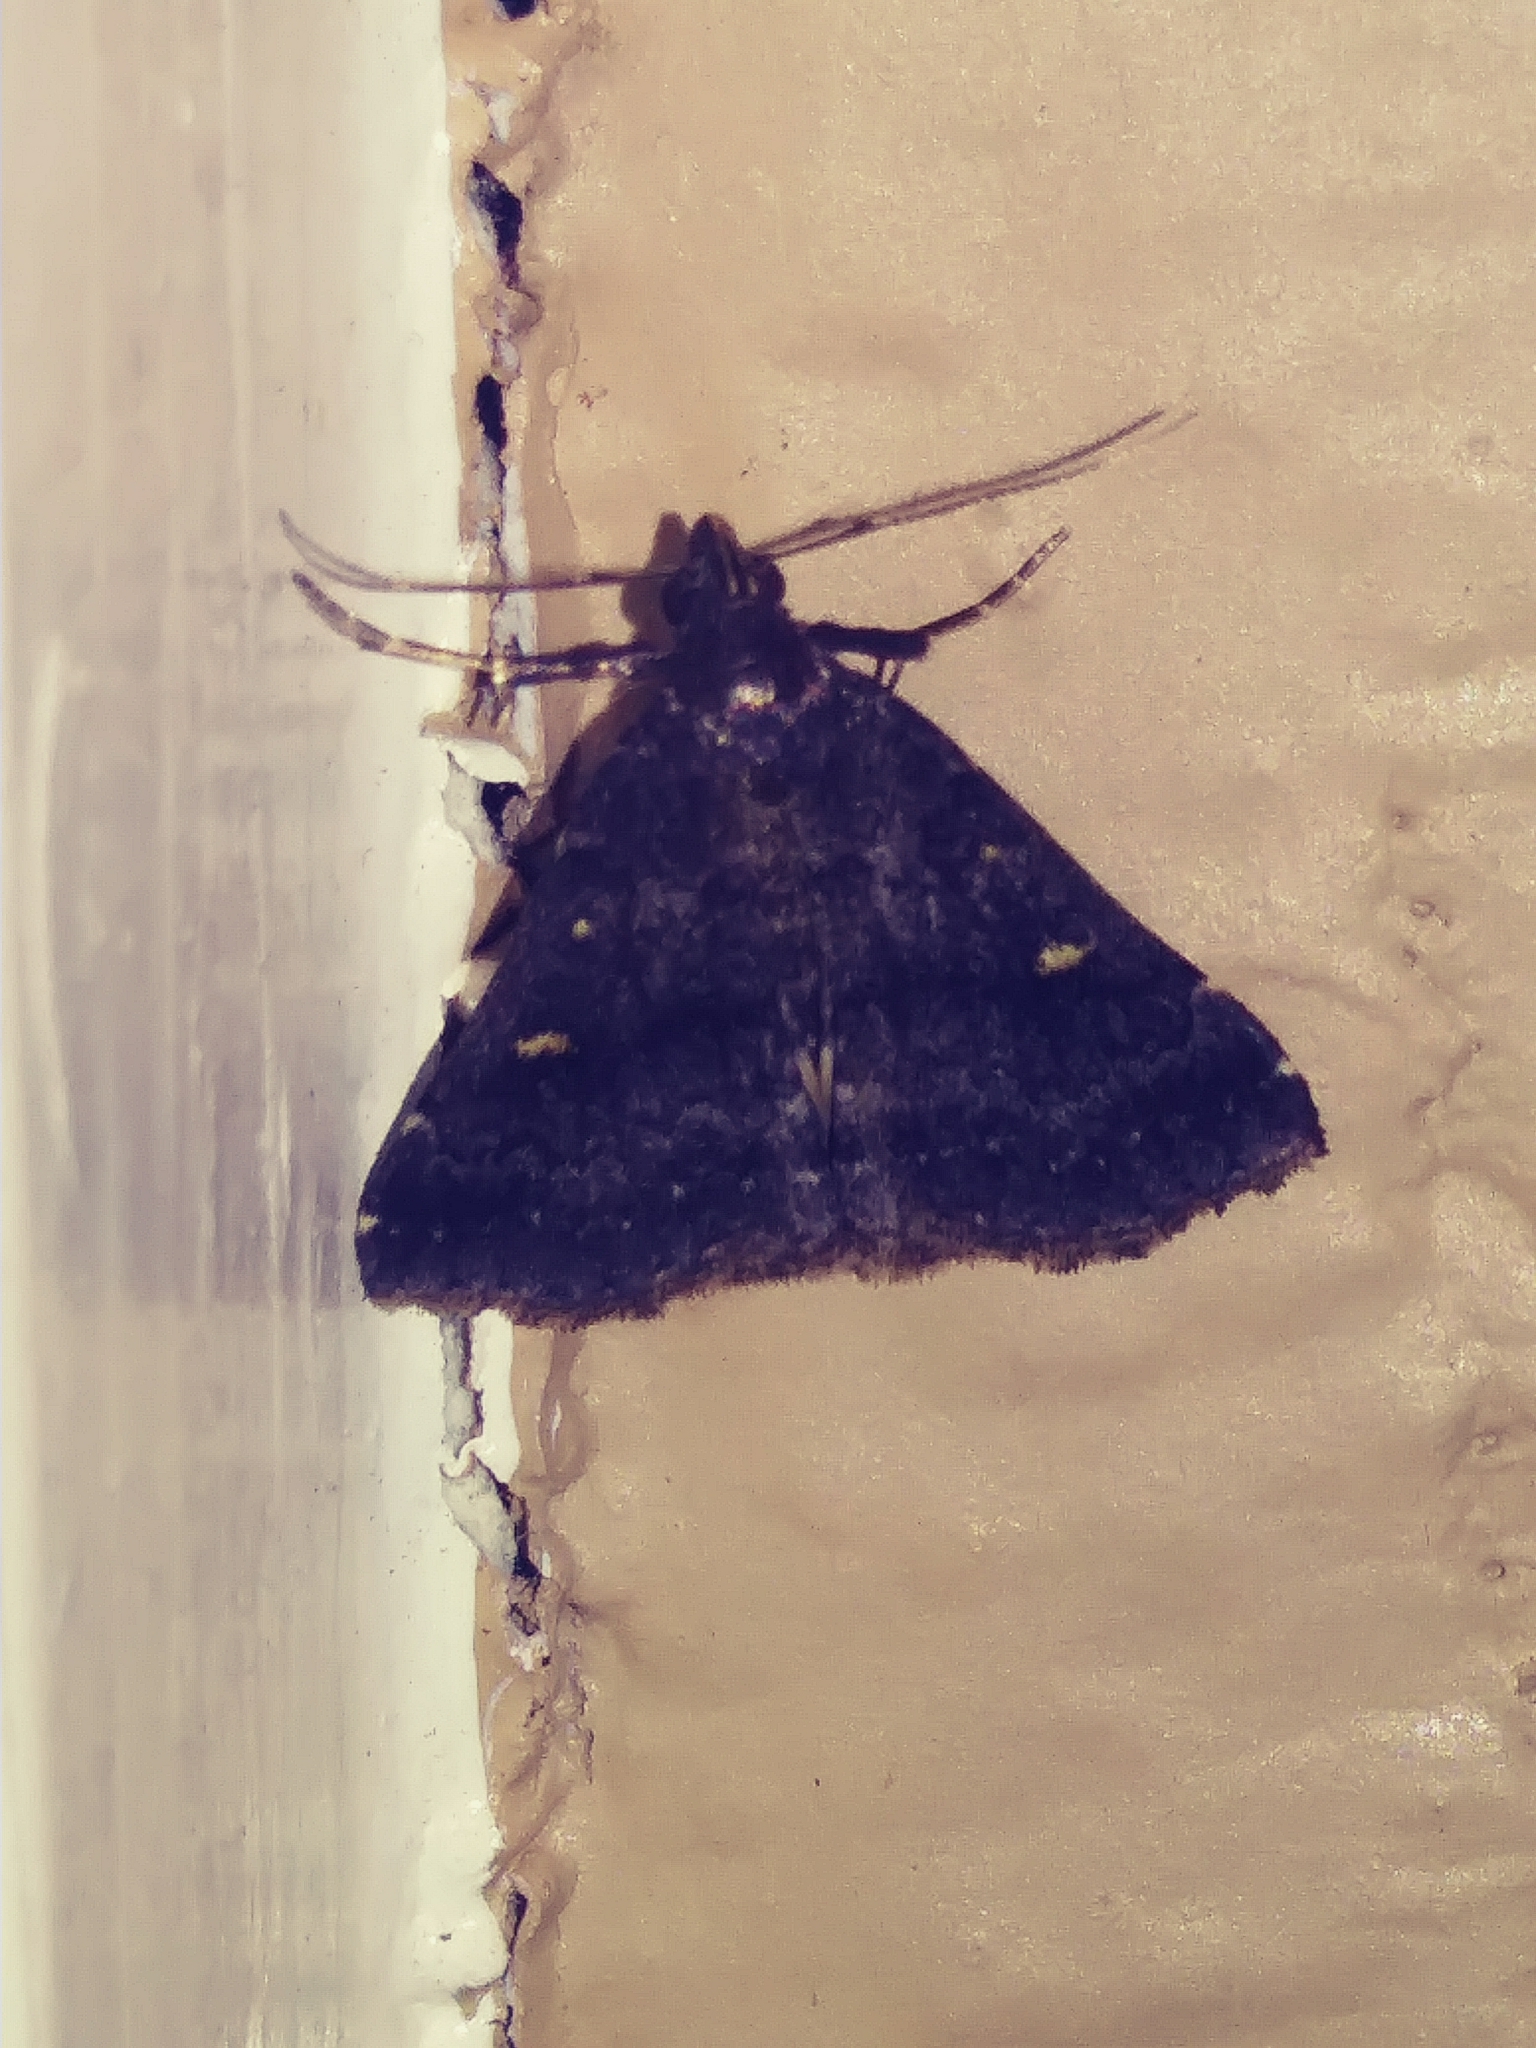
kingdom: Animalia
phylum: Arthropoda
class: Insecta
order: Lepidoptera
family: Erebidae
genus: Tetanolita
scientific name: Tetanolita mynesalis
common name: Smoky tetanolita moth
